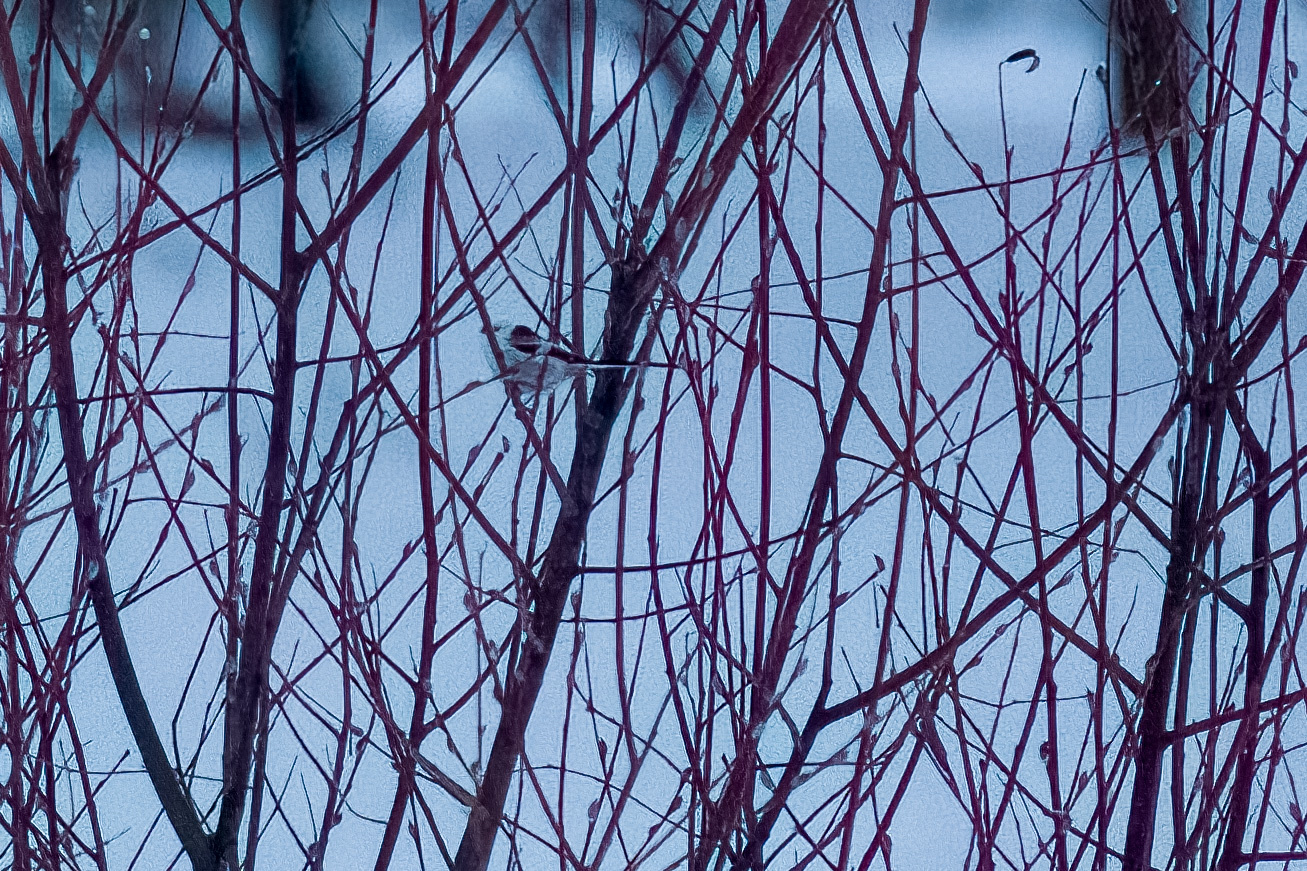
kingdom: Animalia
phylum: Chordata
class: Aves
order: Passeriformes
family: Aegithalidae
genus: Aegithalos
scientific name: Aegithalos caudatus
